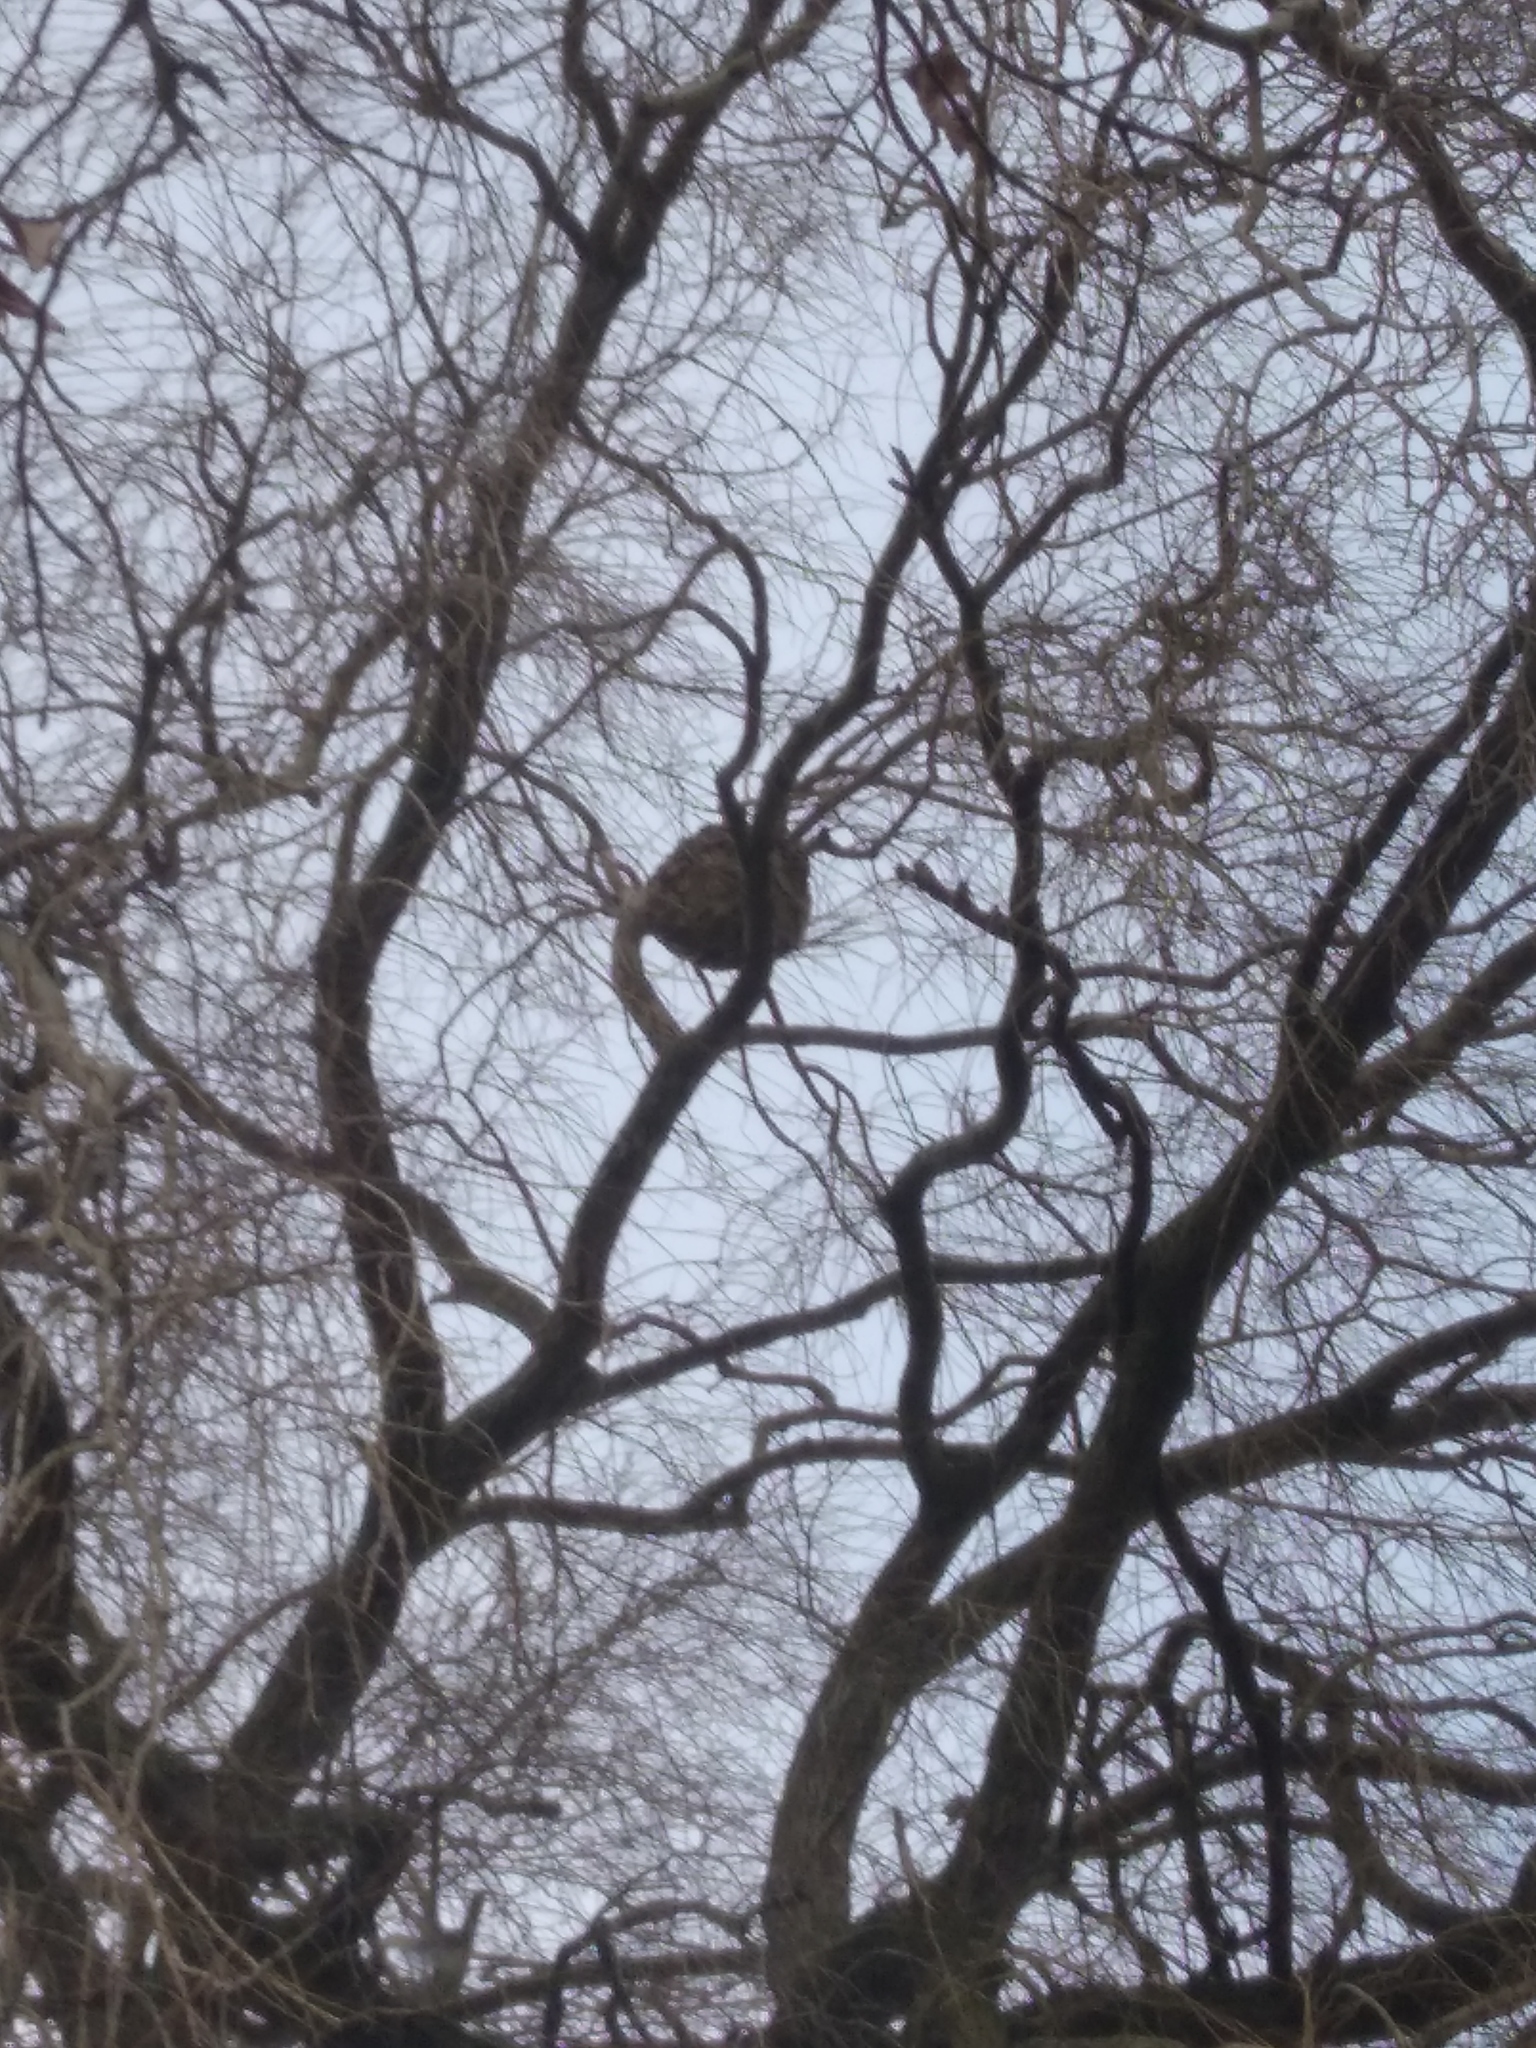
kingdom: Animalia
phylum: Arthropoda
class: Insecta
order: Hymenoptera
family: Vespidae
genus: Vespa
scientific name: Vespa velutina
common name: Asian hornet
